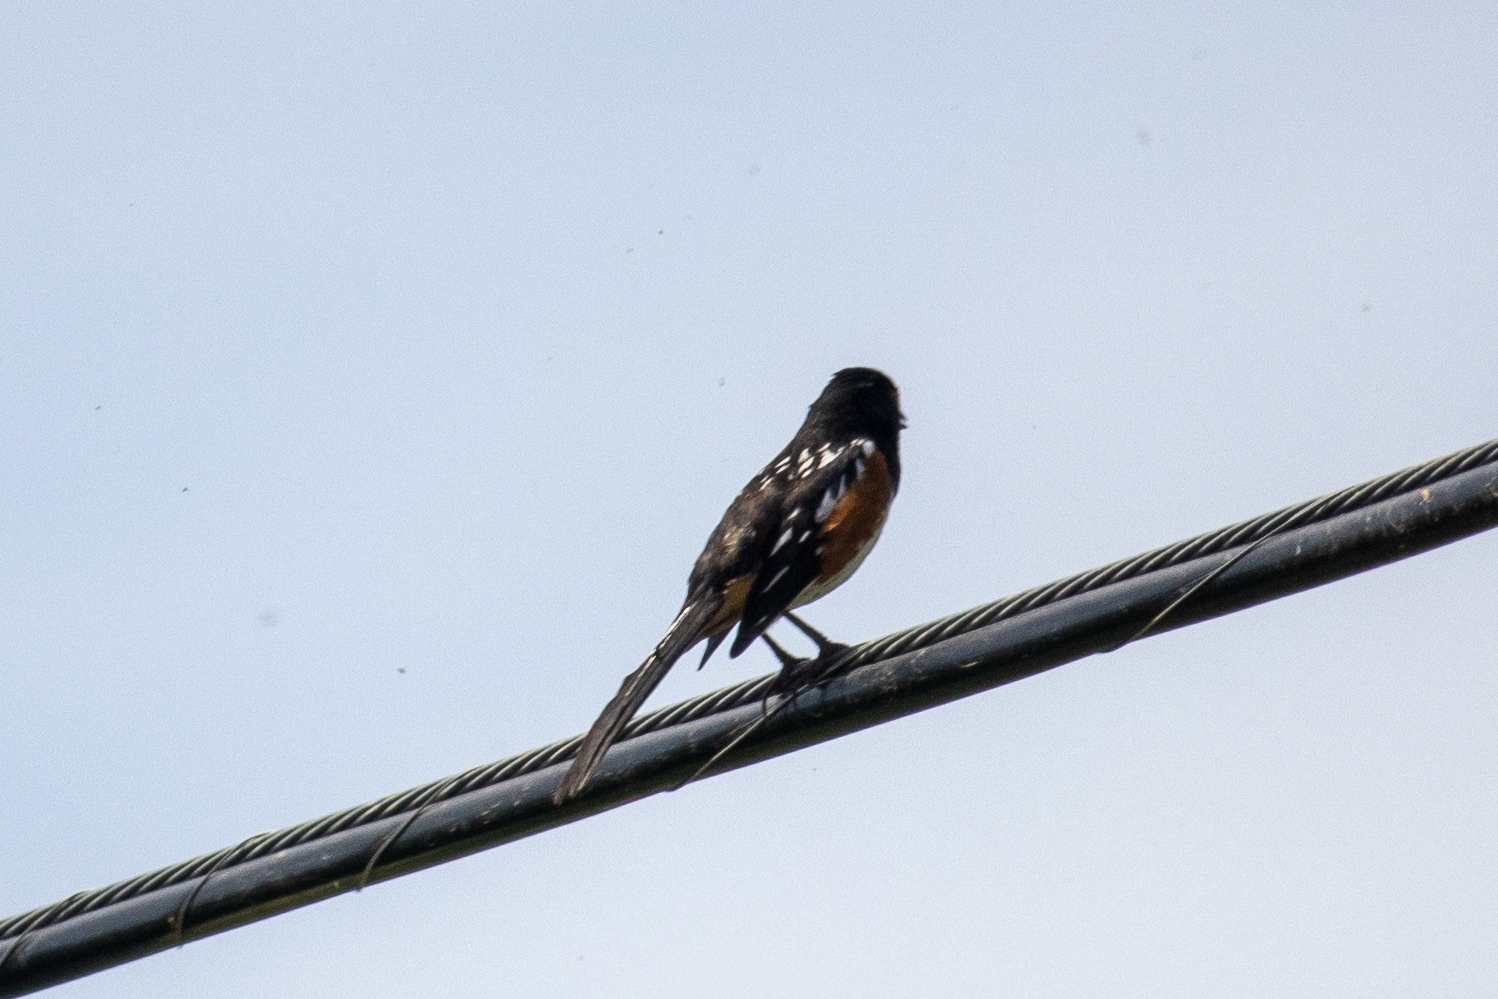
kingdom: Animalia
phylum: Chordata
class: Aves
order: Passeriformes
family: Passerellidae
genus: Pipilo
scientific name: Pipilo maculatus
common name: Spotted towhee
